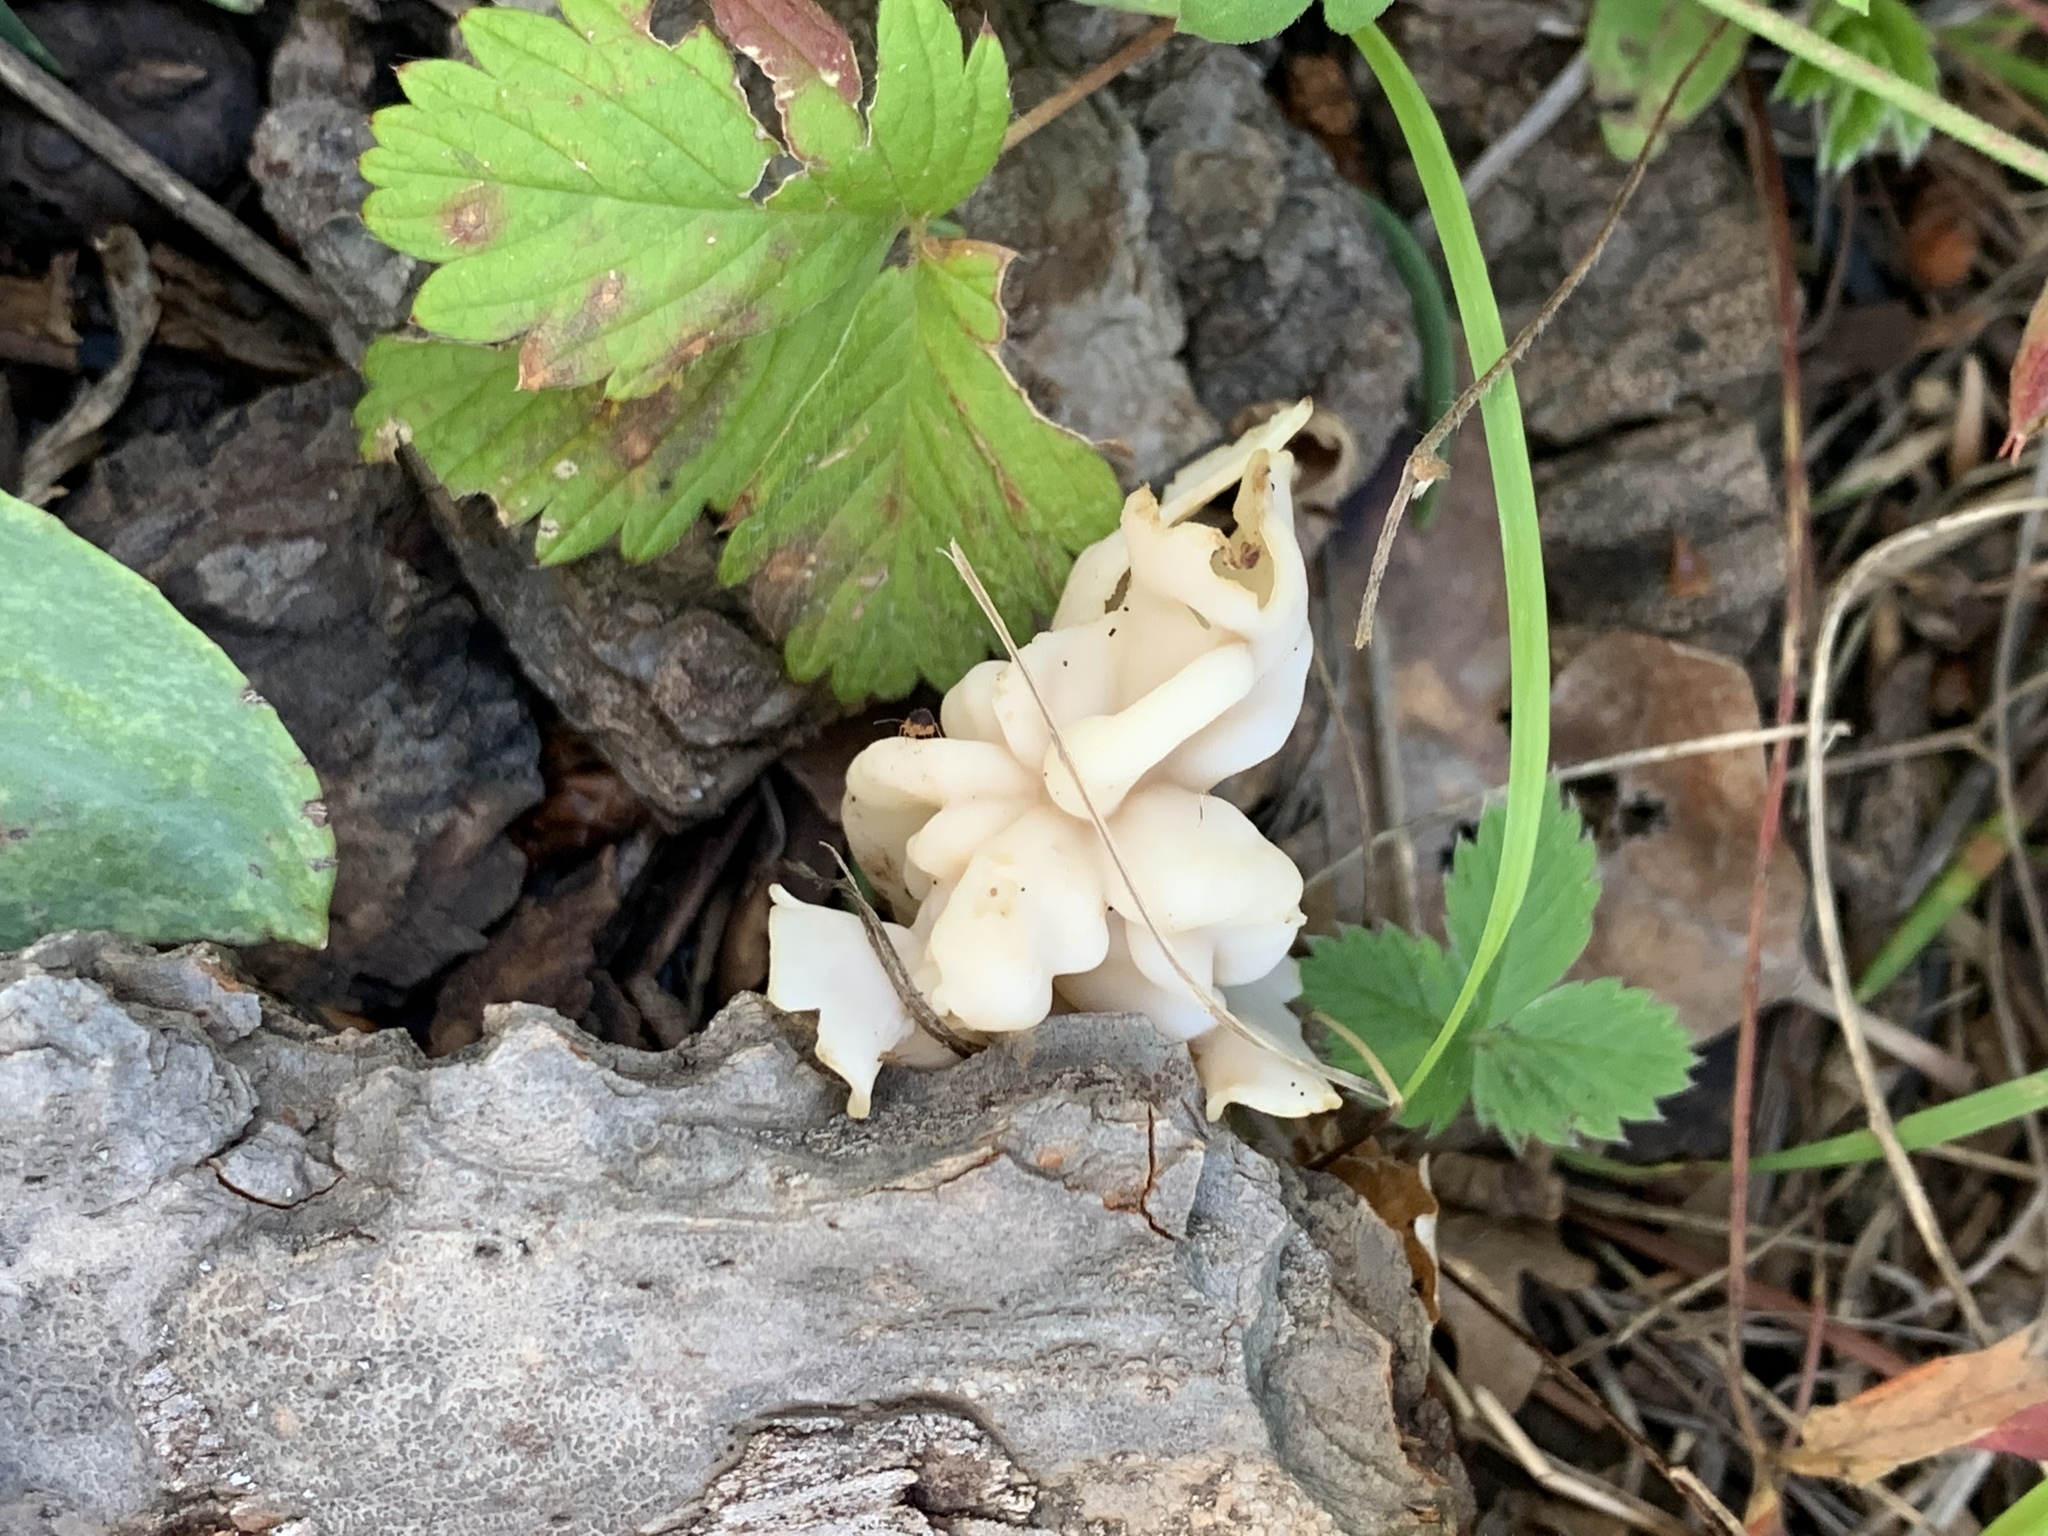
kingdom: Fungi
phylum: Ascomycota
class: Pezizomycetes
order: Pezizales
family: Helvellaceae
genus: Helvella
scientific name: Helvella crispa
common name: White saddle
